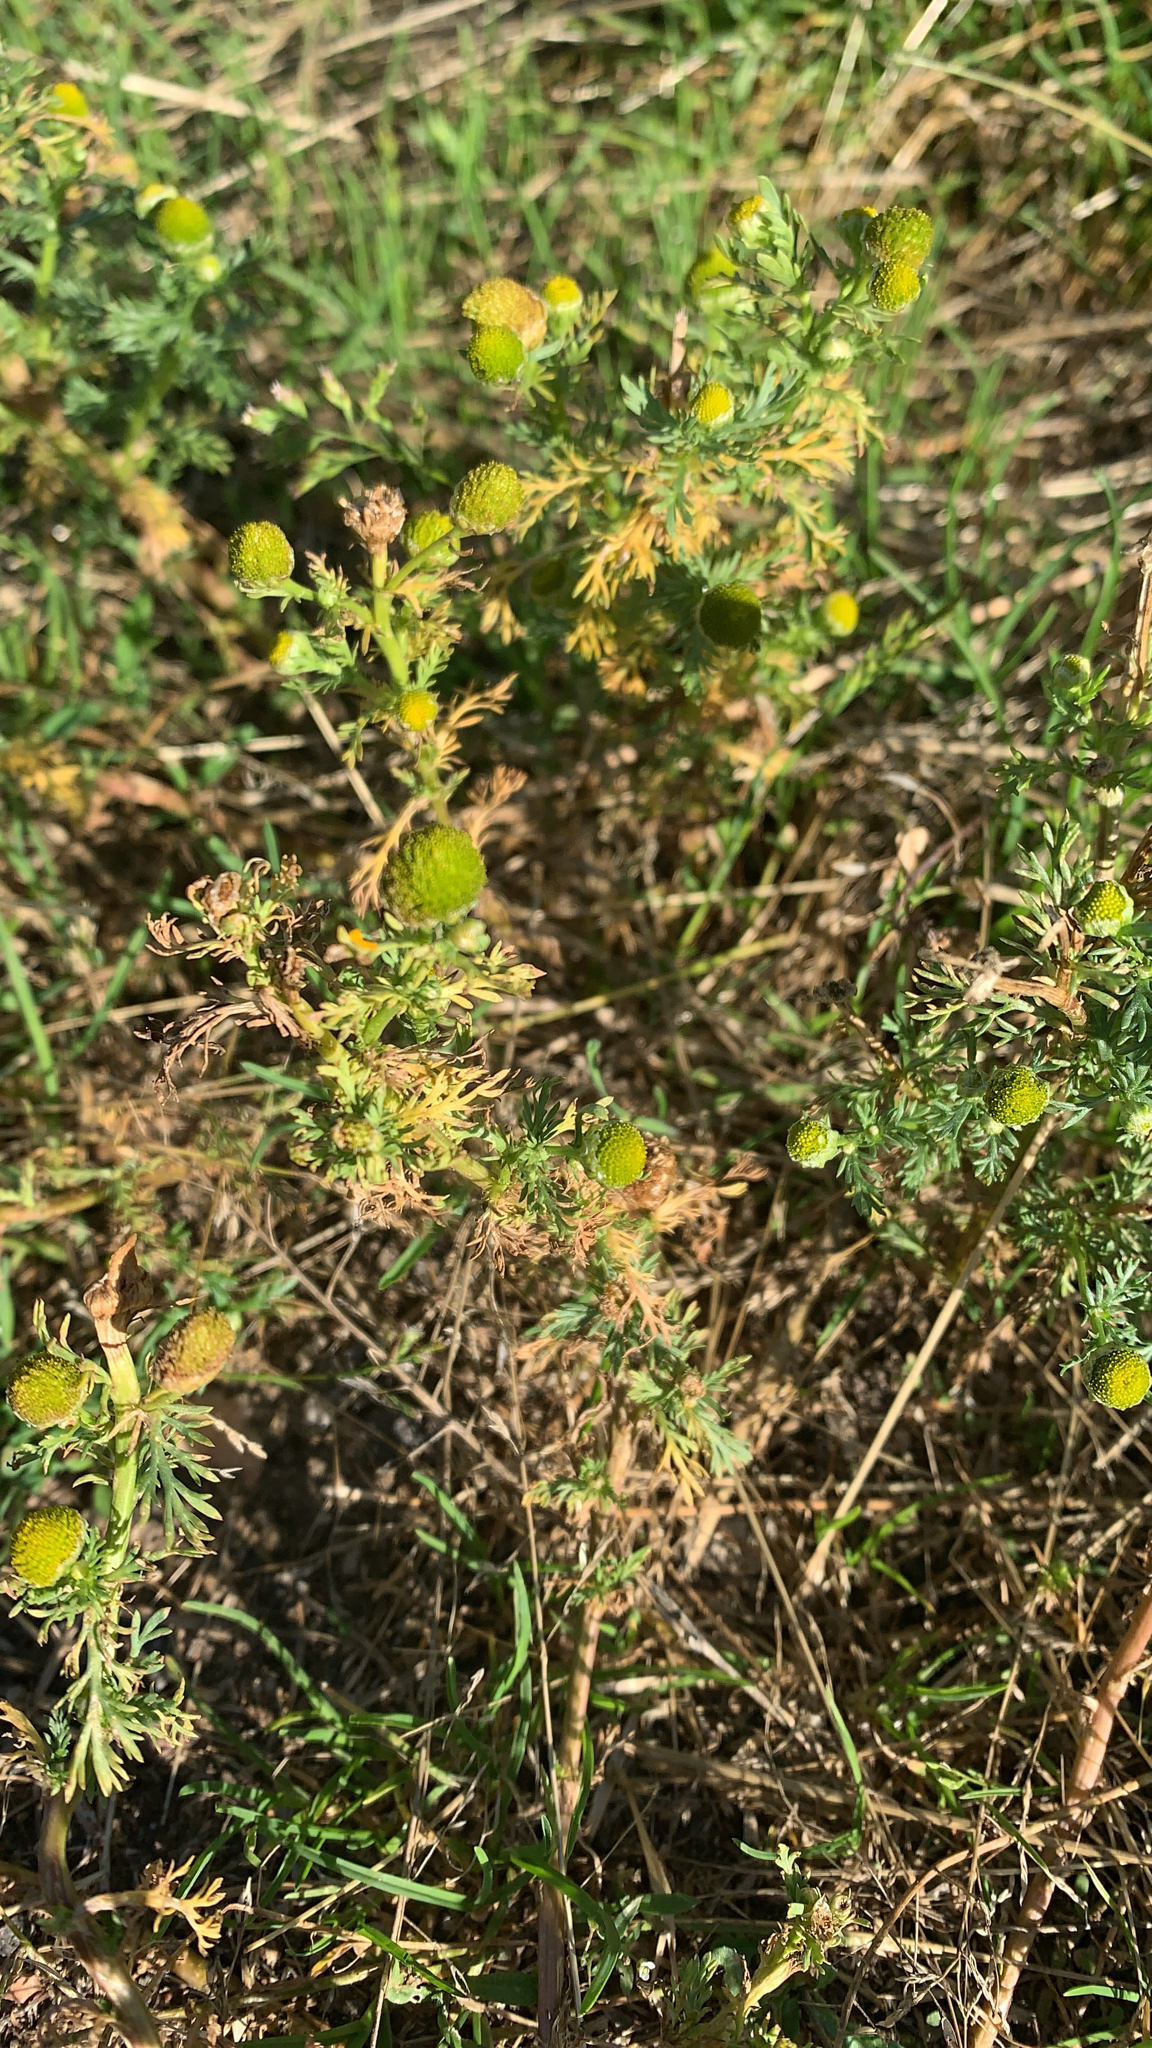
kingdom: Plantae
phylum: Tracheophyta
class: Magnoliopsida
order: Asterales
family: Asteraceae
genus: Matricaria
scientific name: Matricaria discoidea
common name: Disc mayweed
